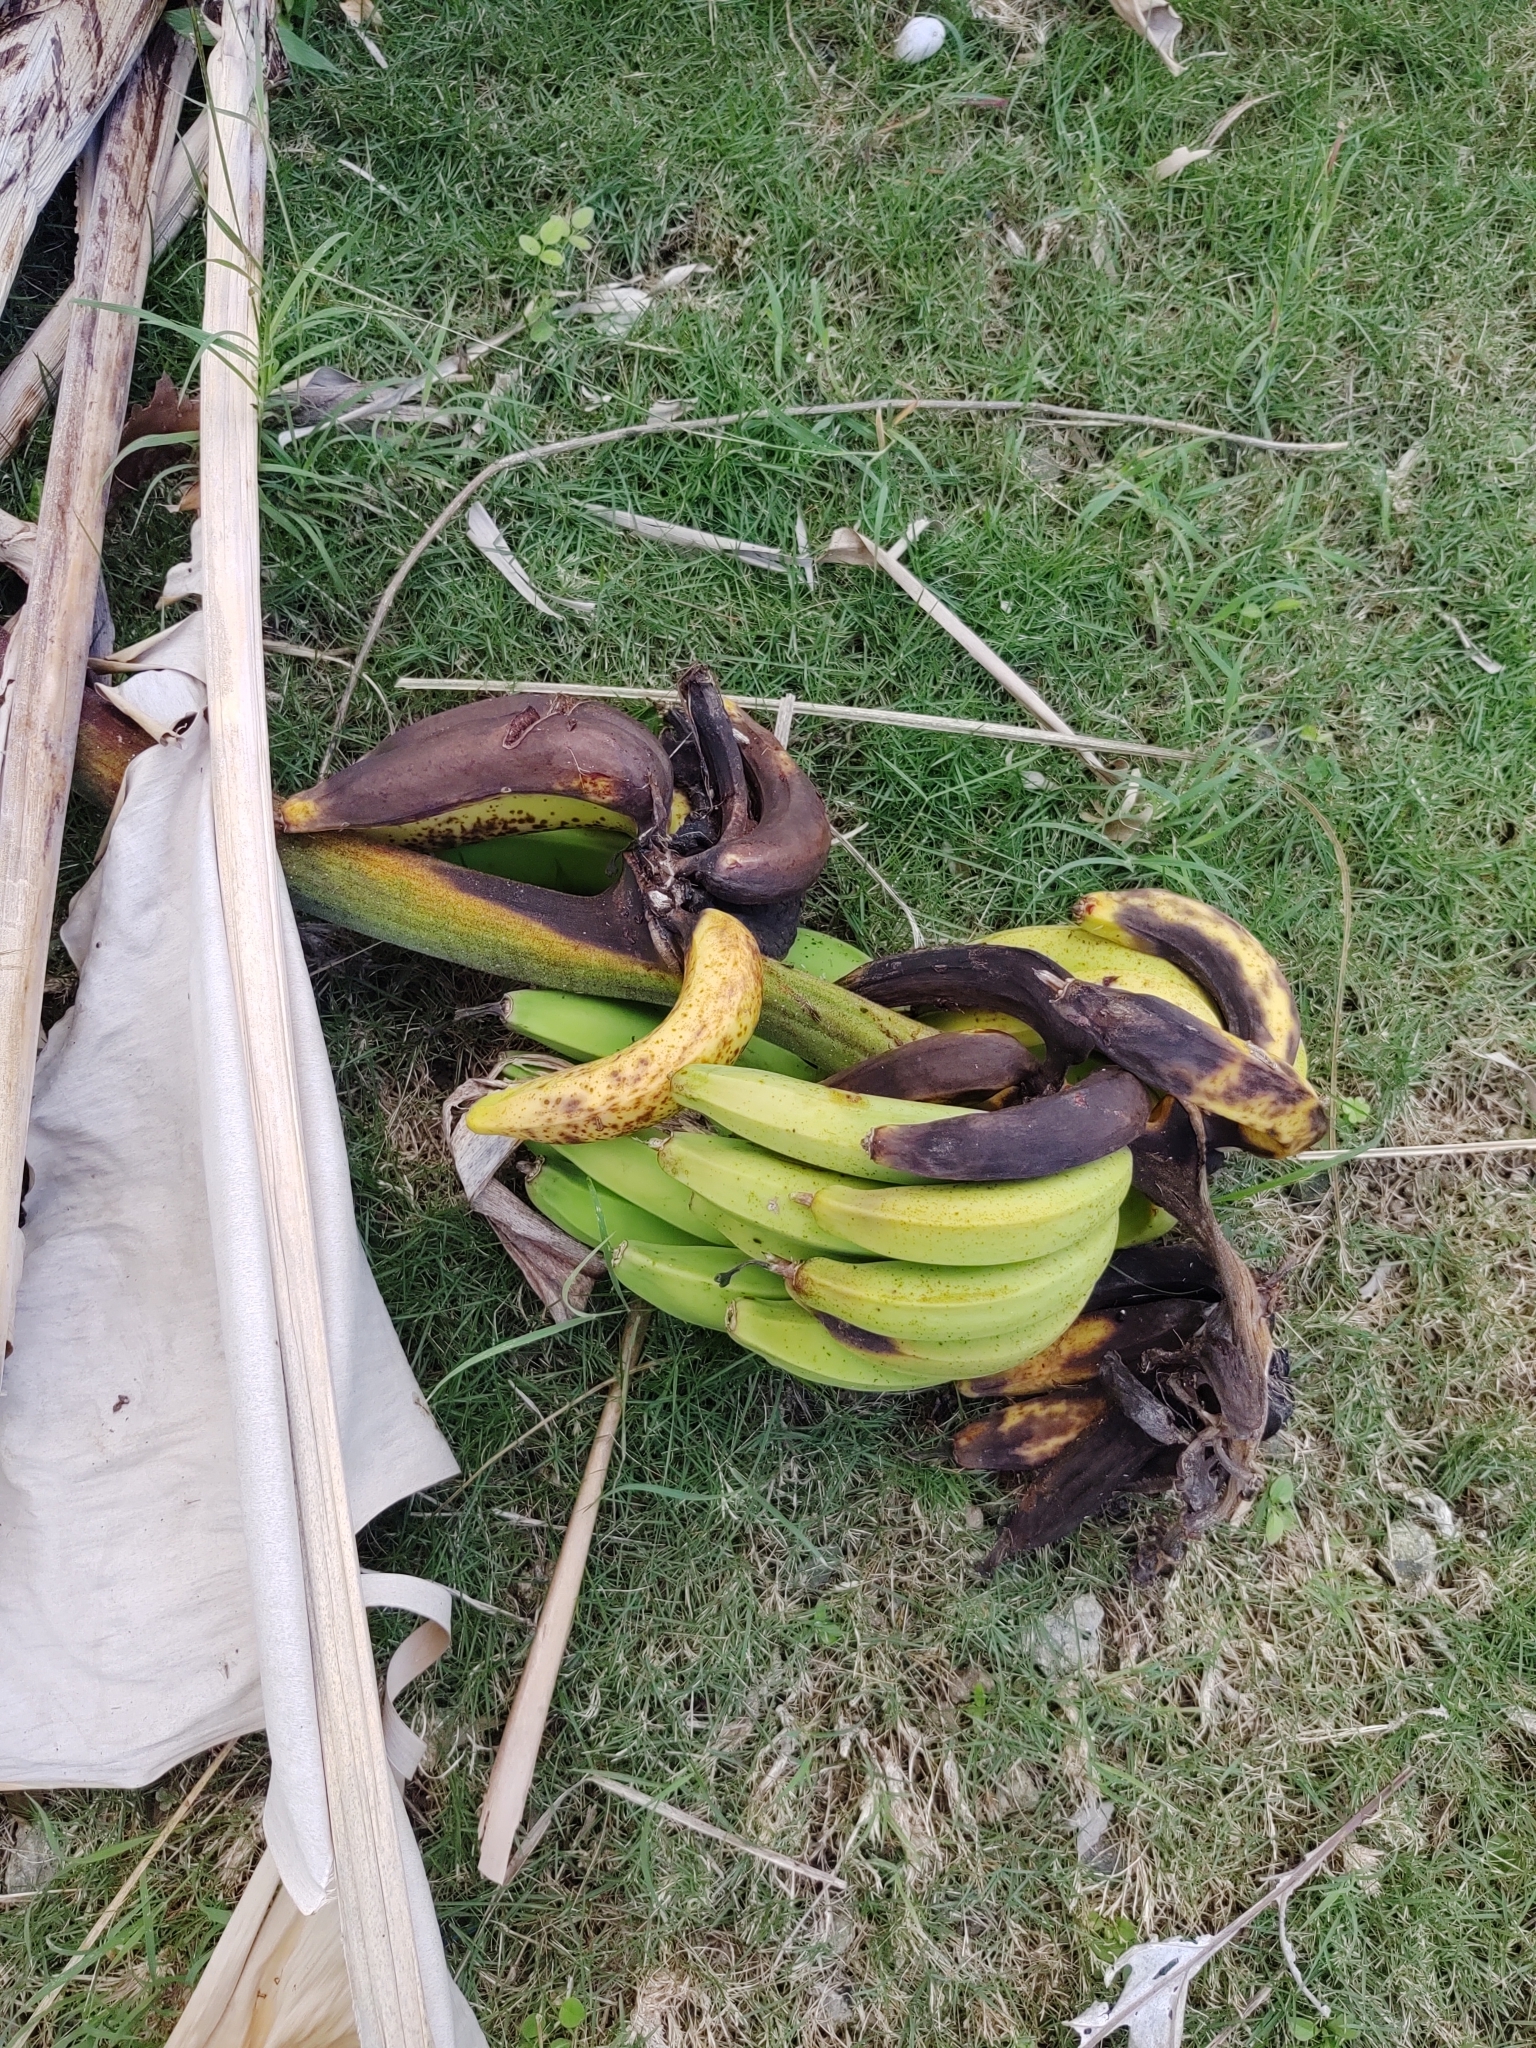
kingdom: Plantae
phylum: Tracheophyta
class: Liliopsida
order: Zingiberales
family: Musaceae
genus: Musa
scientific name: Musa acuminata
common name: Edible banana
